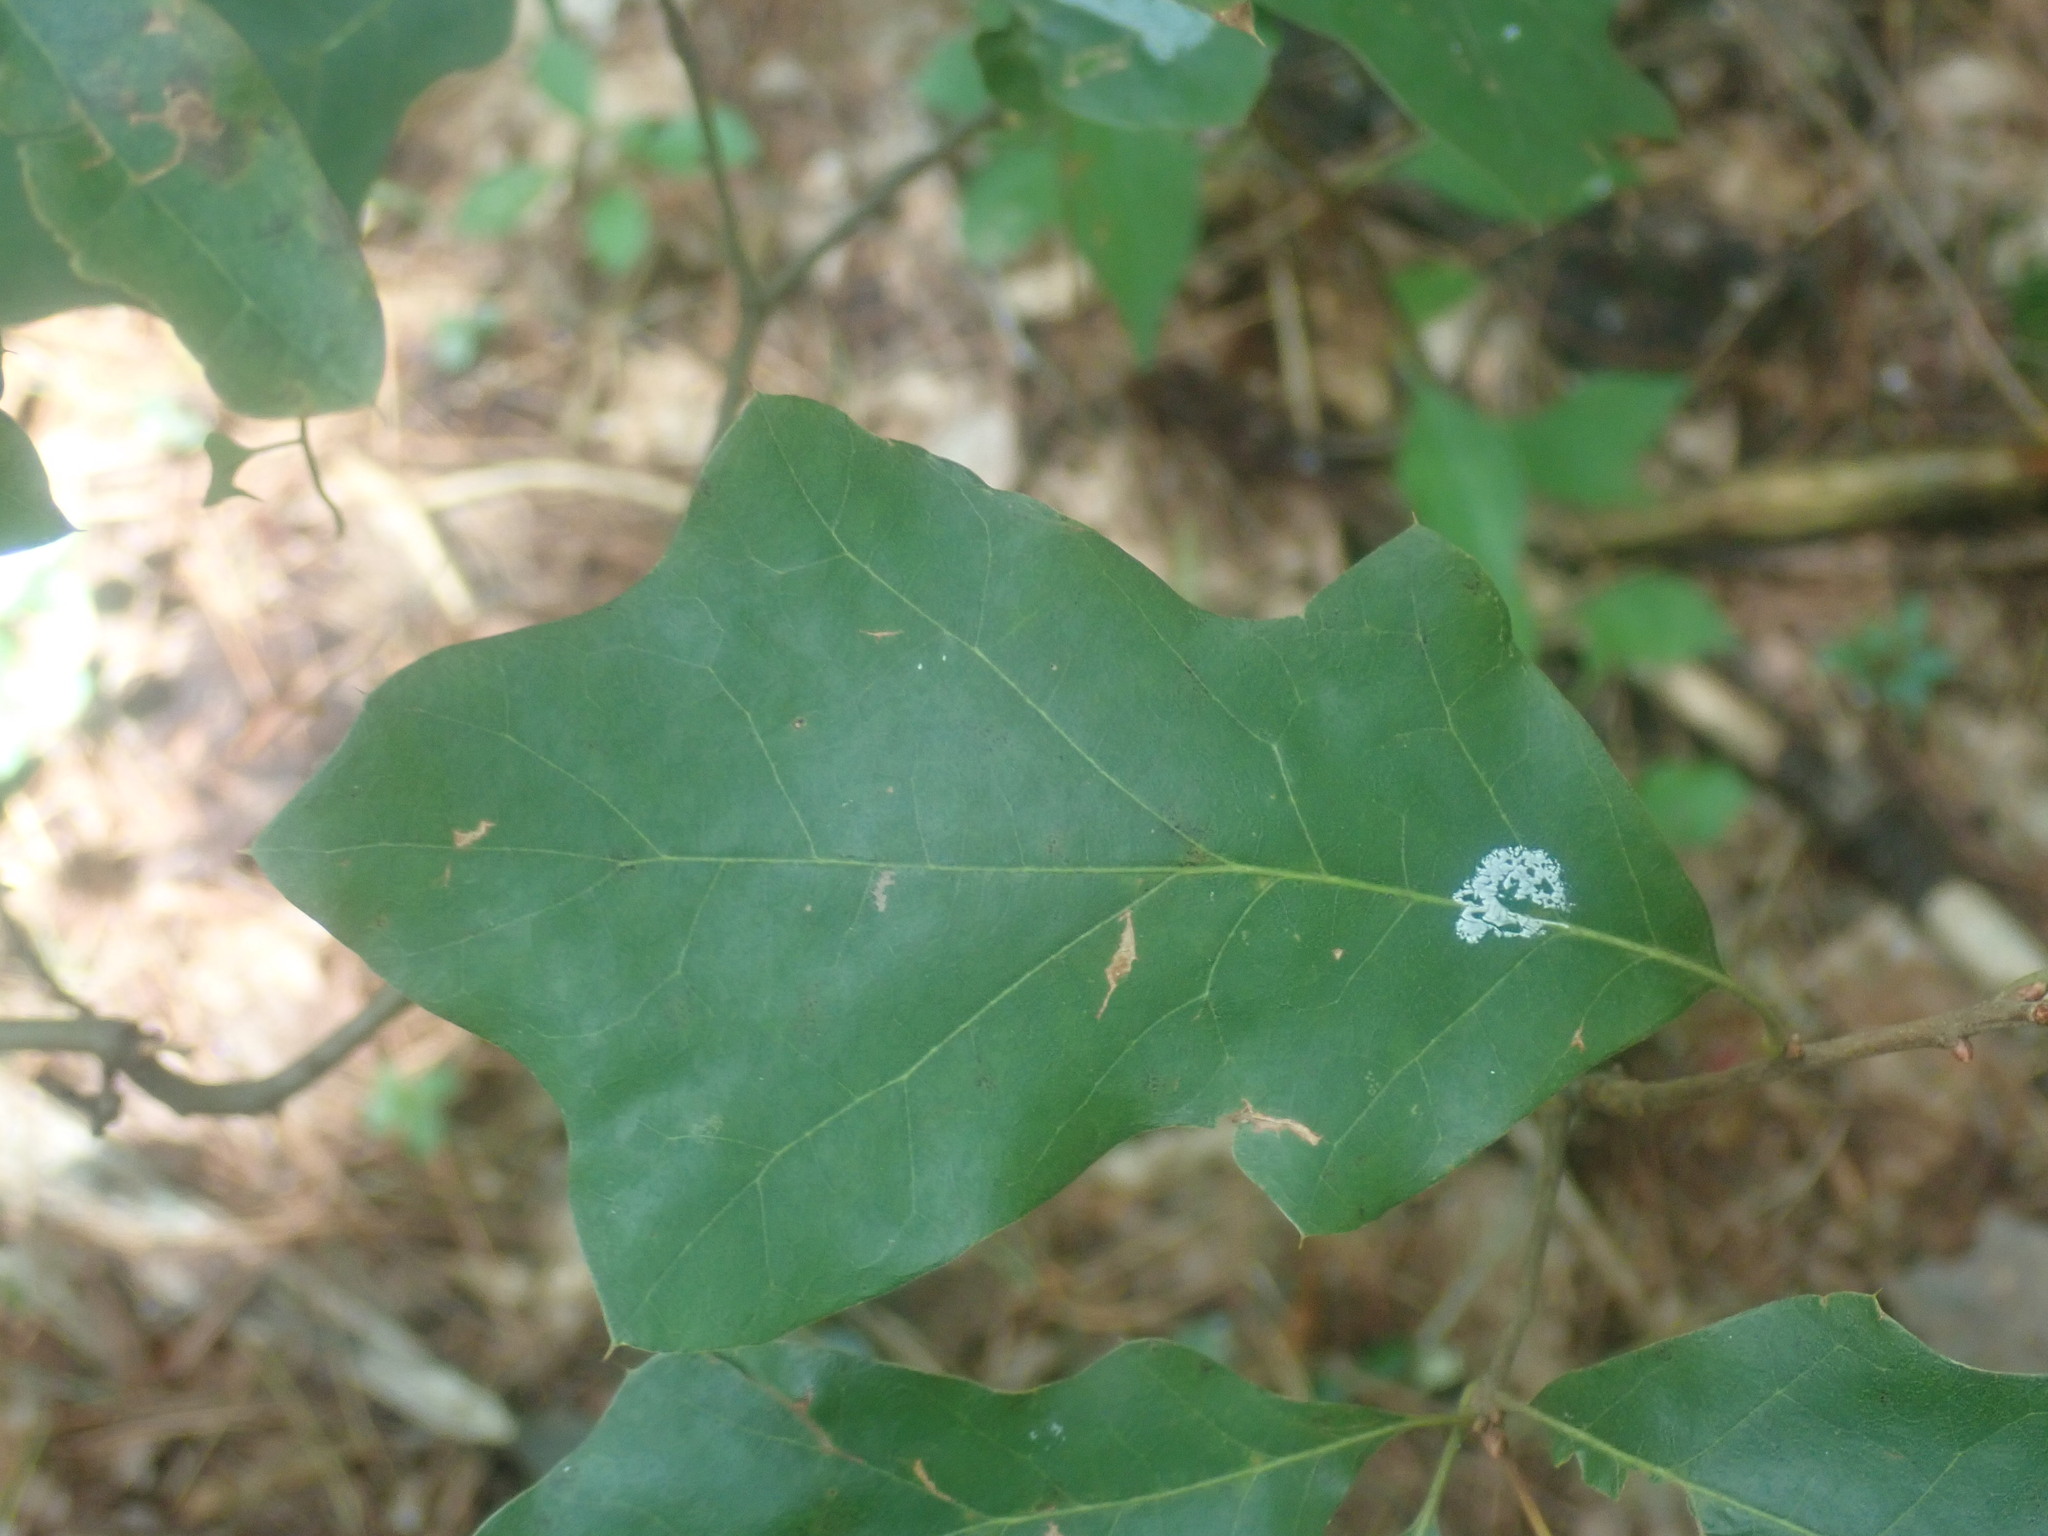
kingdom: Plantae
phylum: Tracheophyta
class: Magnoliopsida
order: Fagales
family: Fagaceae
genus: Quercus
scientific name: Quercus ilicifolia
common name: Bear oak
